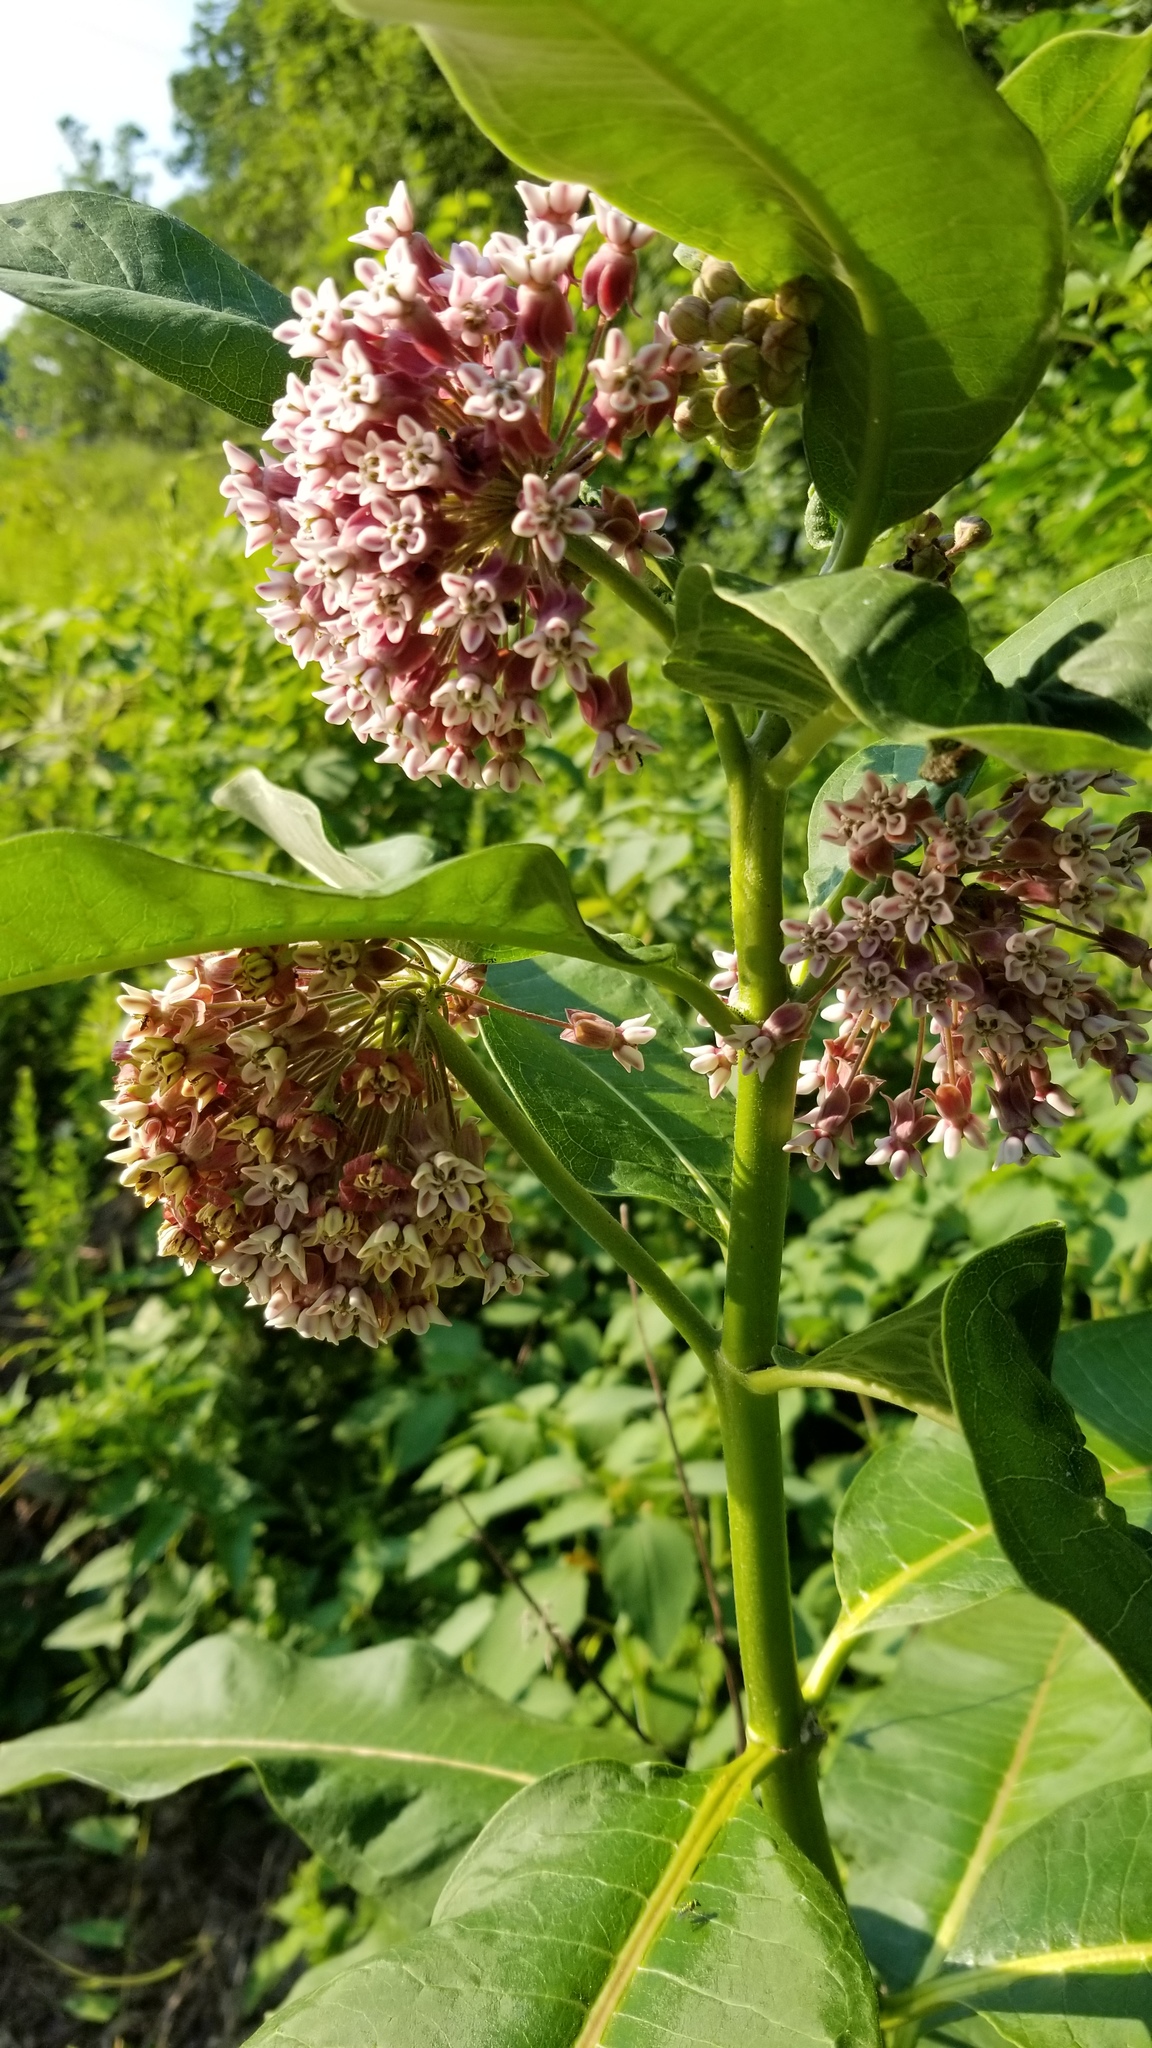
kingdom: Plantae
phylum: Tracheophyta
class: Magnoliopsida
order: Gentianales
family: Apocynaceae
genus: Asclepias
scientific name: Asclepias syriaca
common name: Common milkweed
